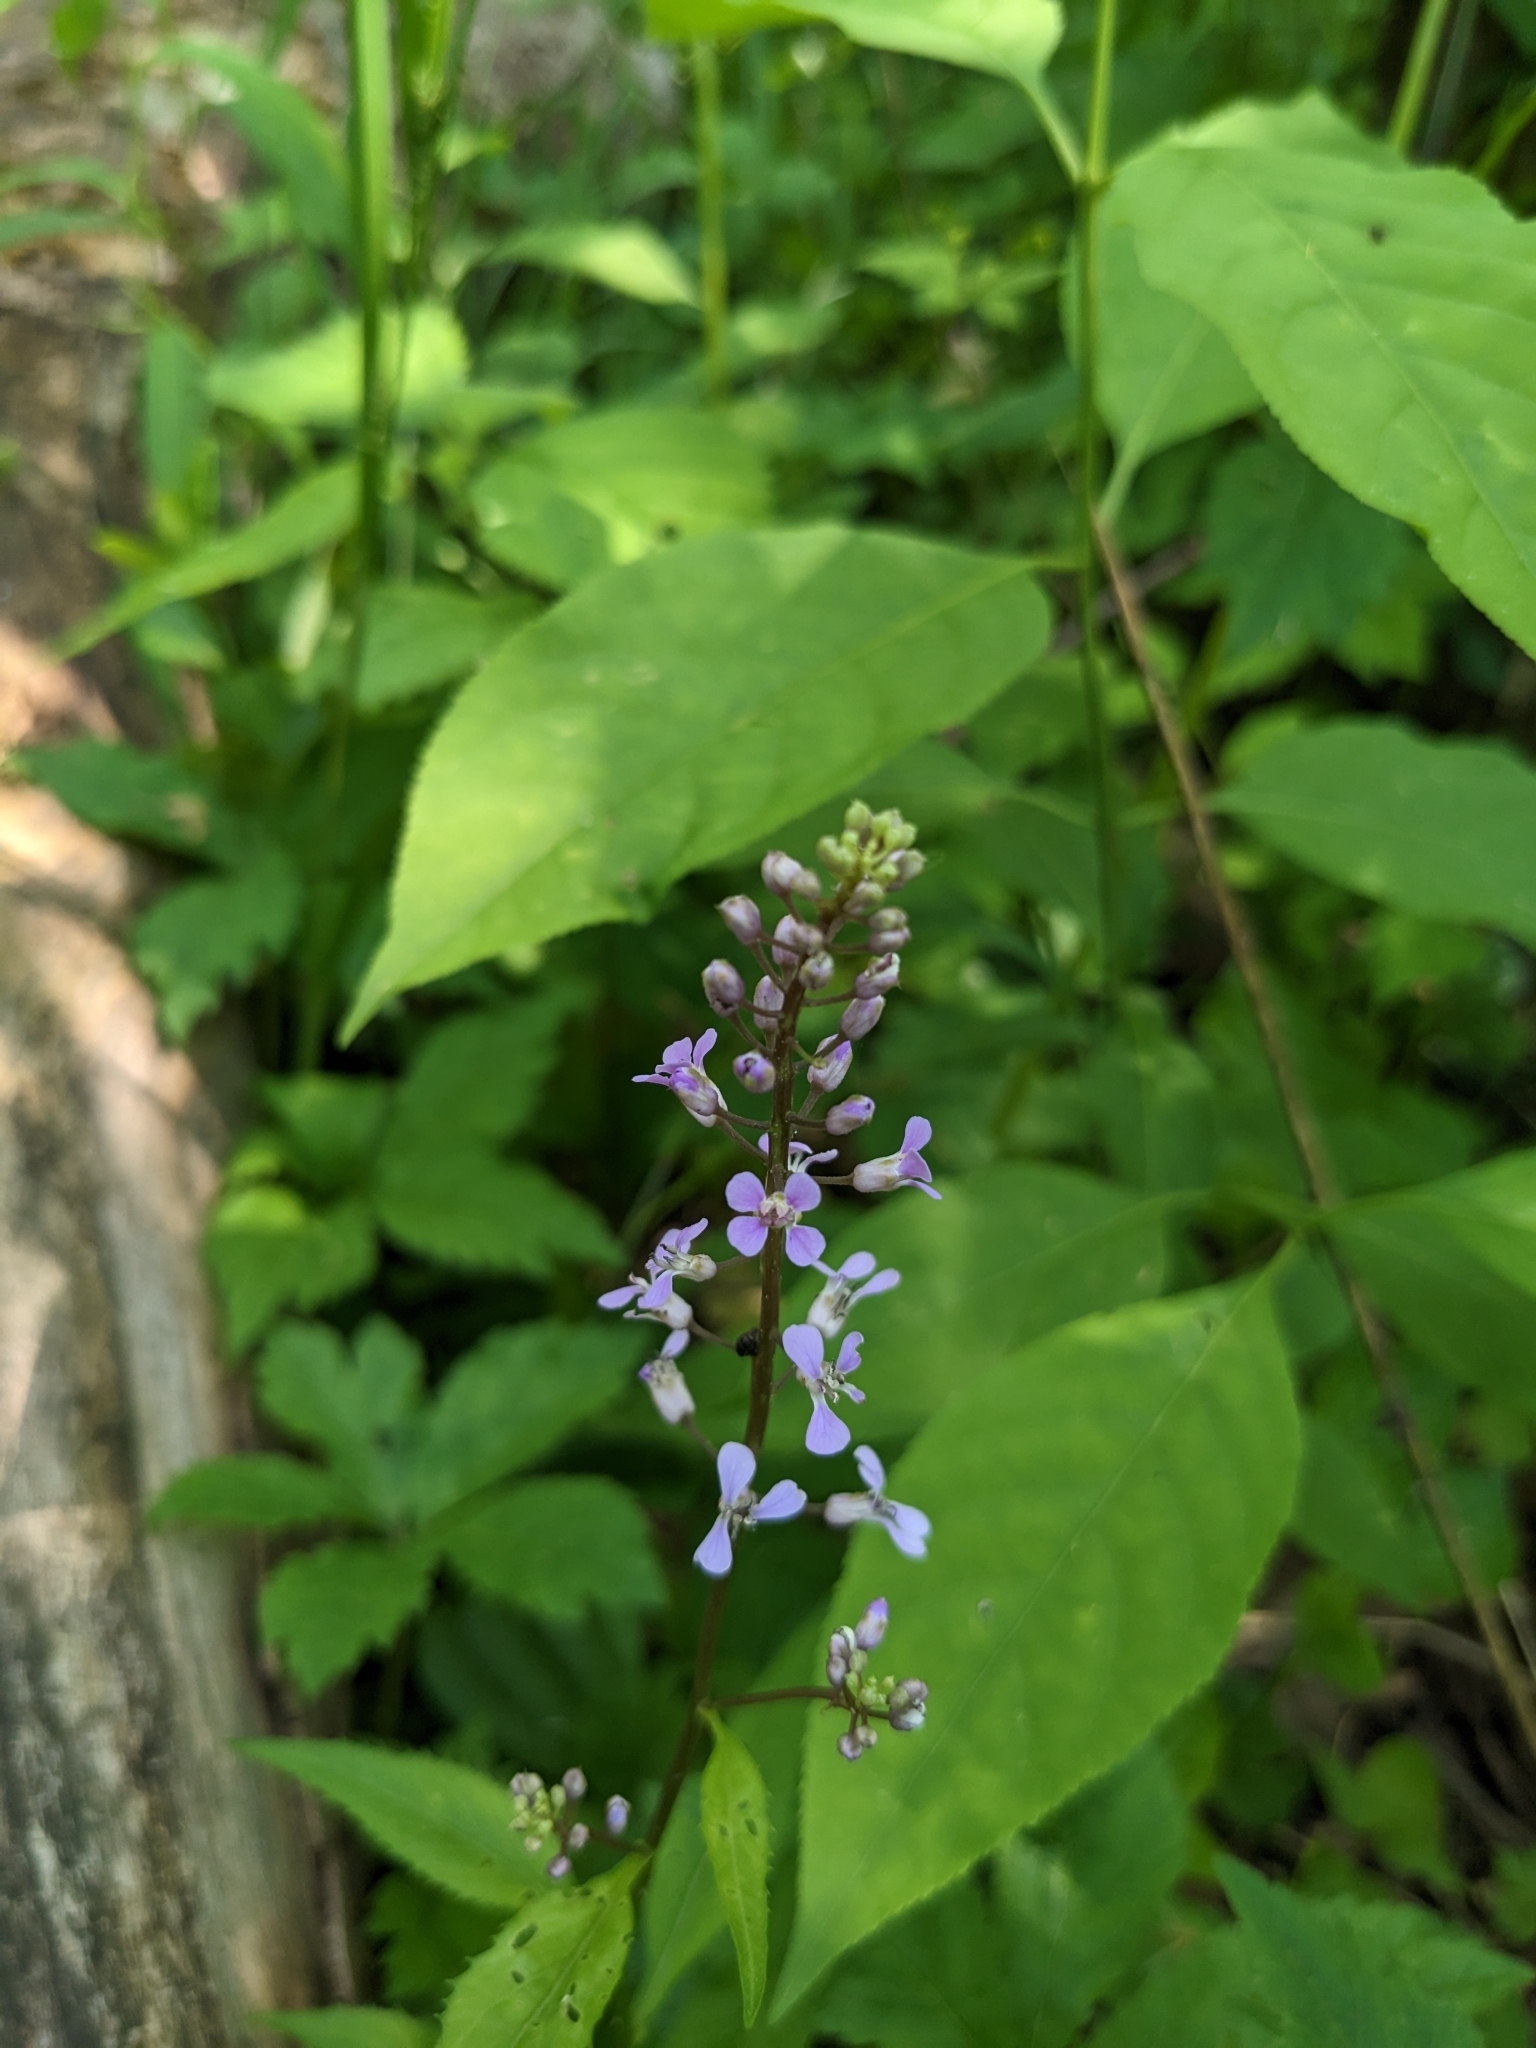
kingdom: Plantae
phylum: Tracheophyta
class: Magnoliopsida
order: Brassicales
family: Brassicaceae
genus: Iodanthus
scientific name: Iodanthus pinnatifidus
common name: Violet rocket
